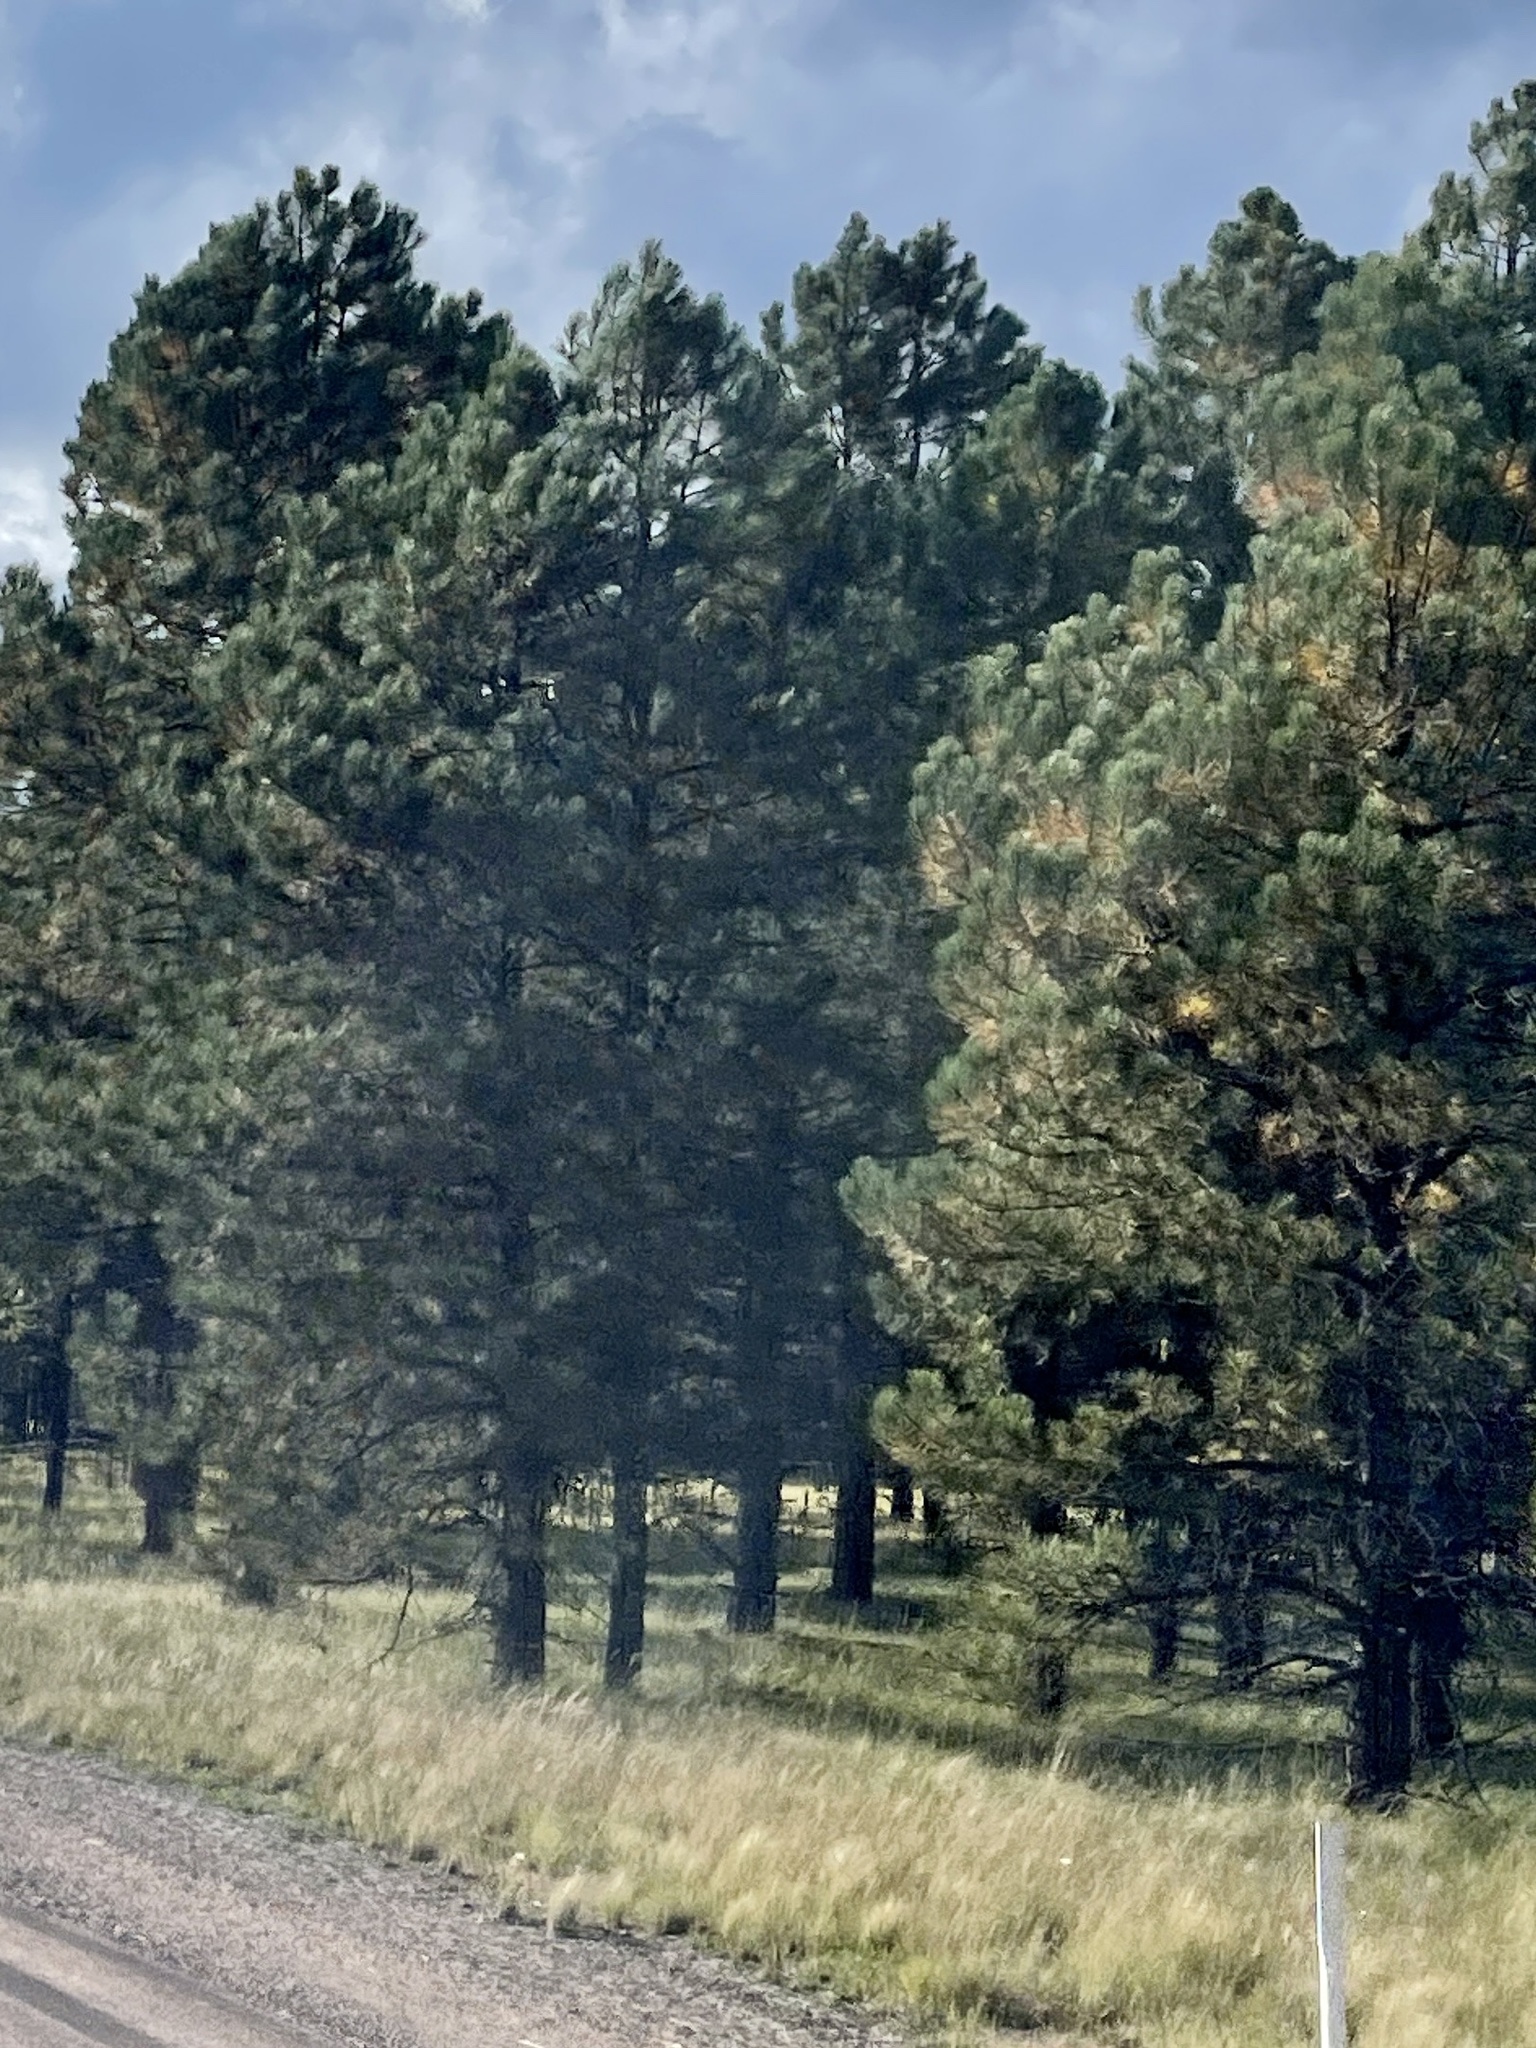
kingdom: Plantae
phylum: Tracheophyta
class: Pinopsida
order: Pinales
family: Pinaceae
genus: Pinus
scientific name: Pinus ponderosa
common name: Western yellow-pine
